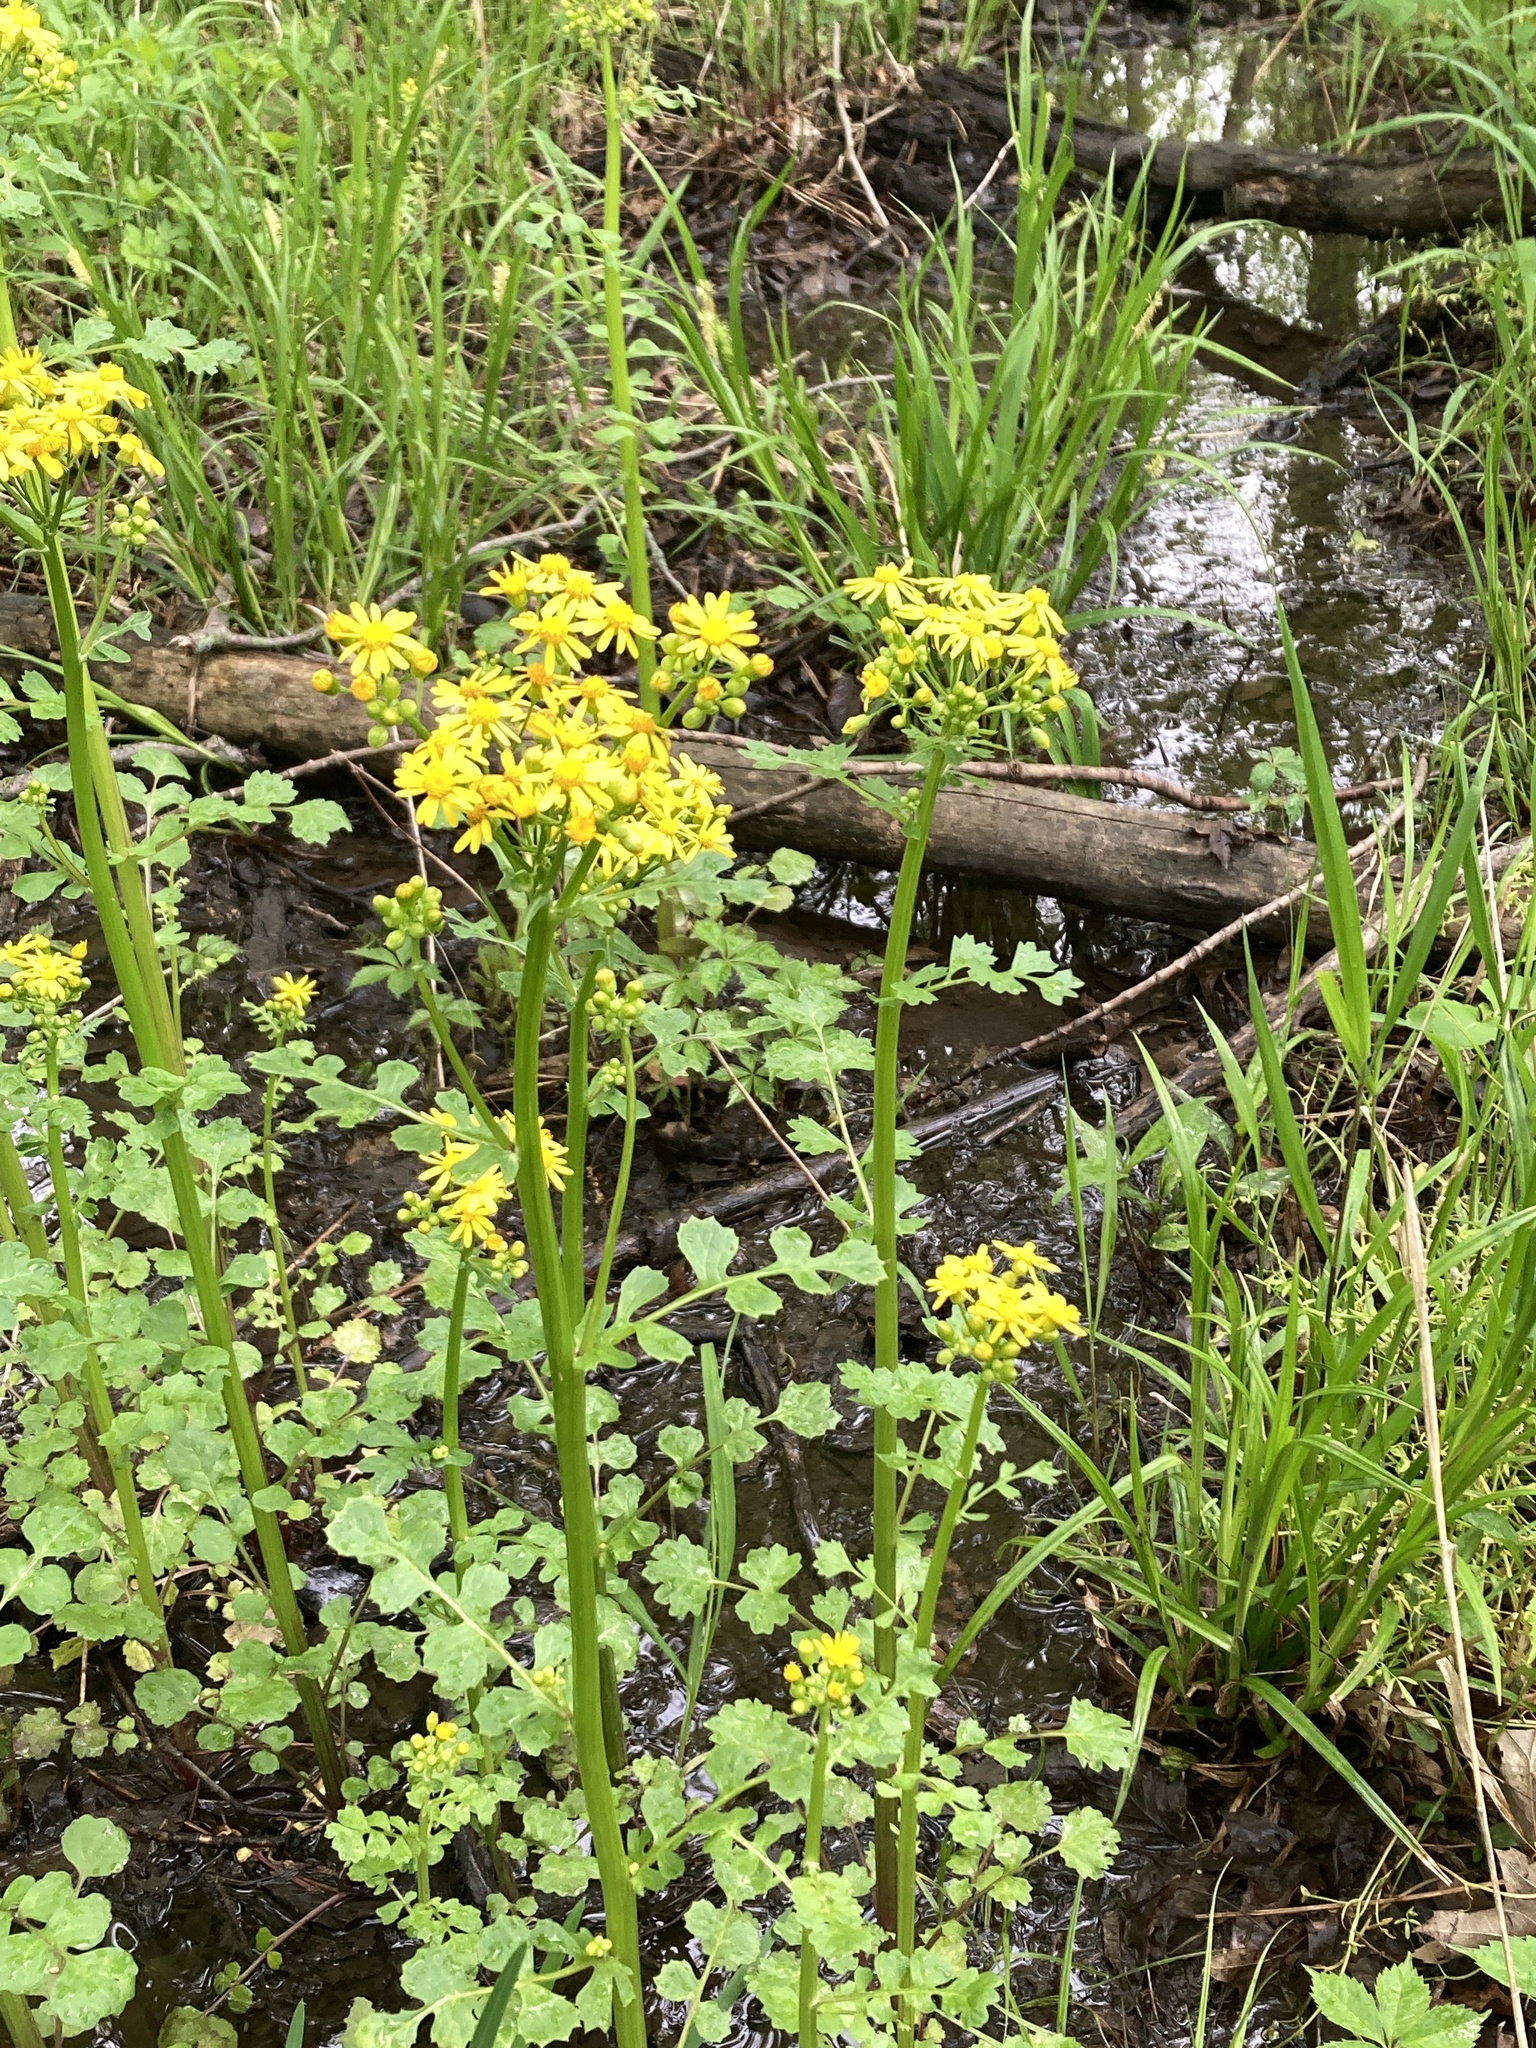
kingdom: Plantae
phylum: Tracheophyta
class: Magnoliopsida
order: Asterales
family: Asteraceae
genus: Packera
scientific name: Packera glabella
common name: Butterweed
